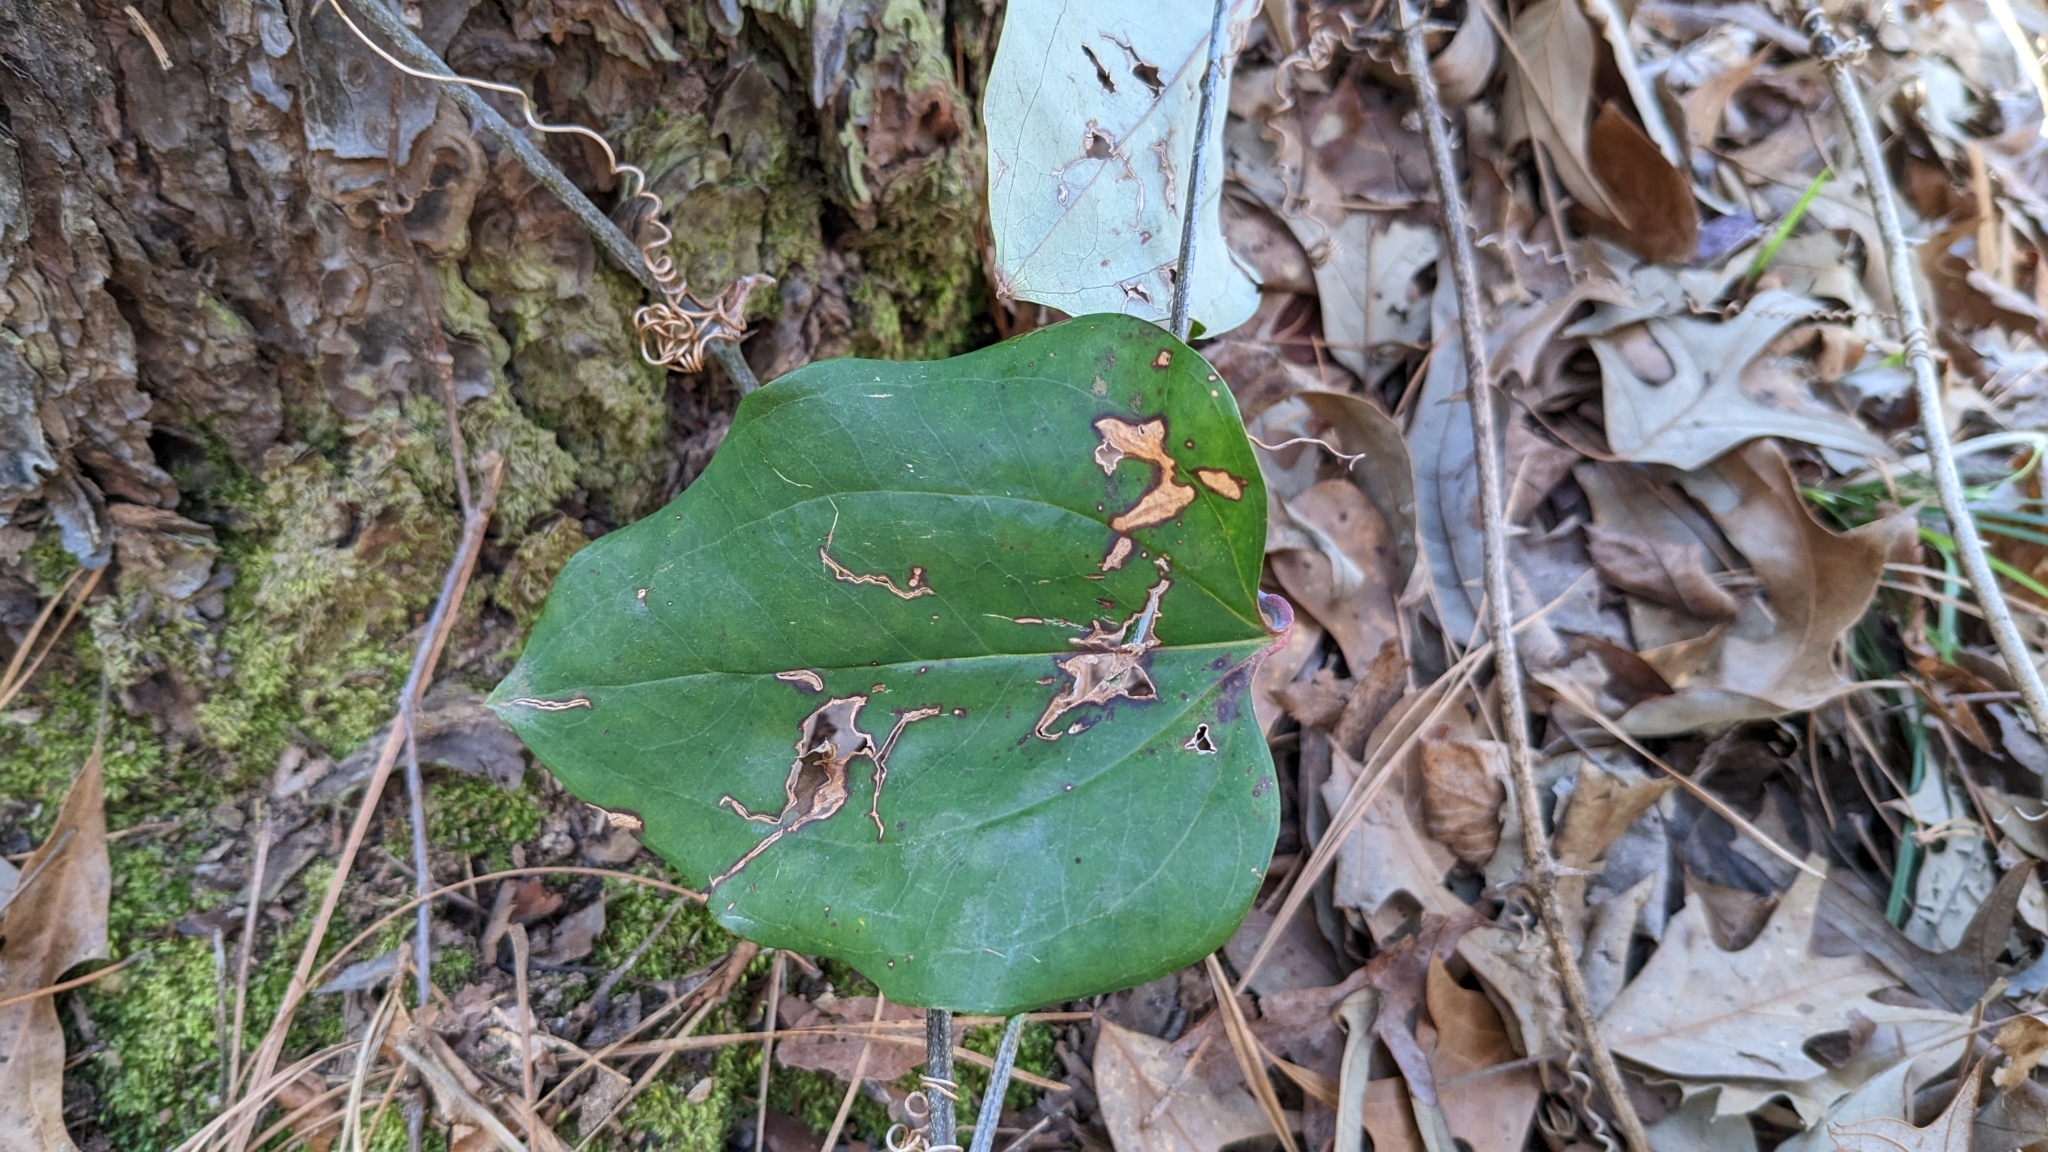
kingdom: Plantae
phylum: Tracheophyta
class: Liliopsida
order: Liliales
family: Smilacaceae
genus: Smilax
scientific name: Smilax glauca
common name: Cat greenbrier
